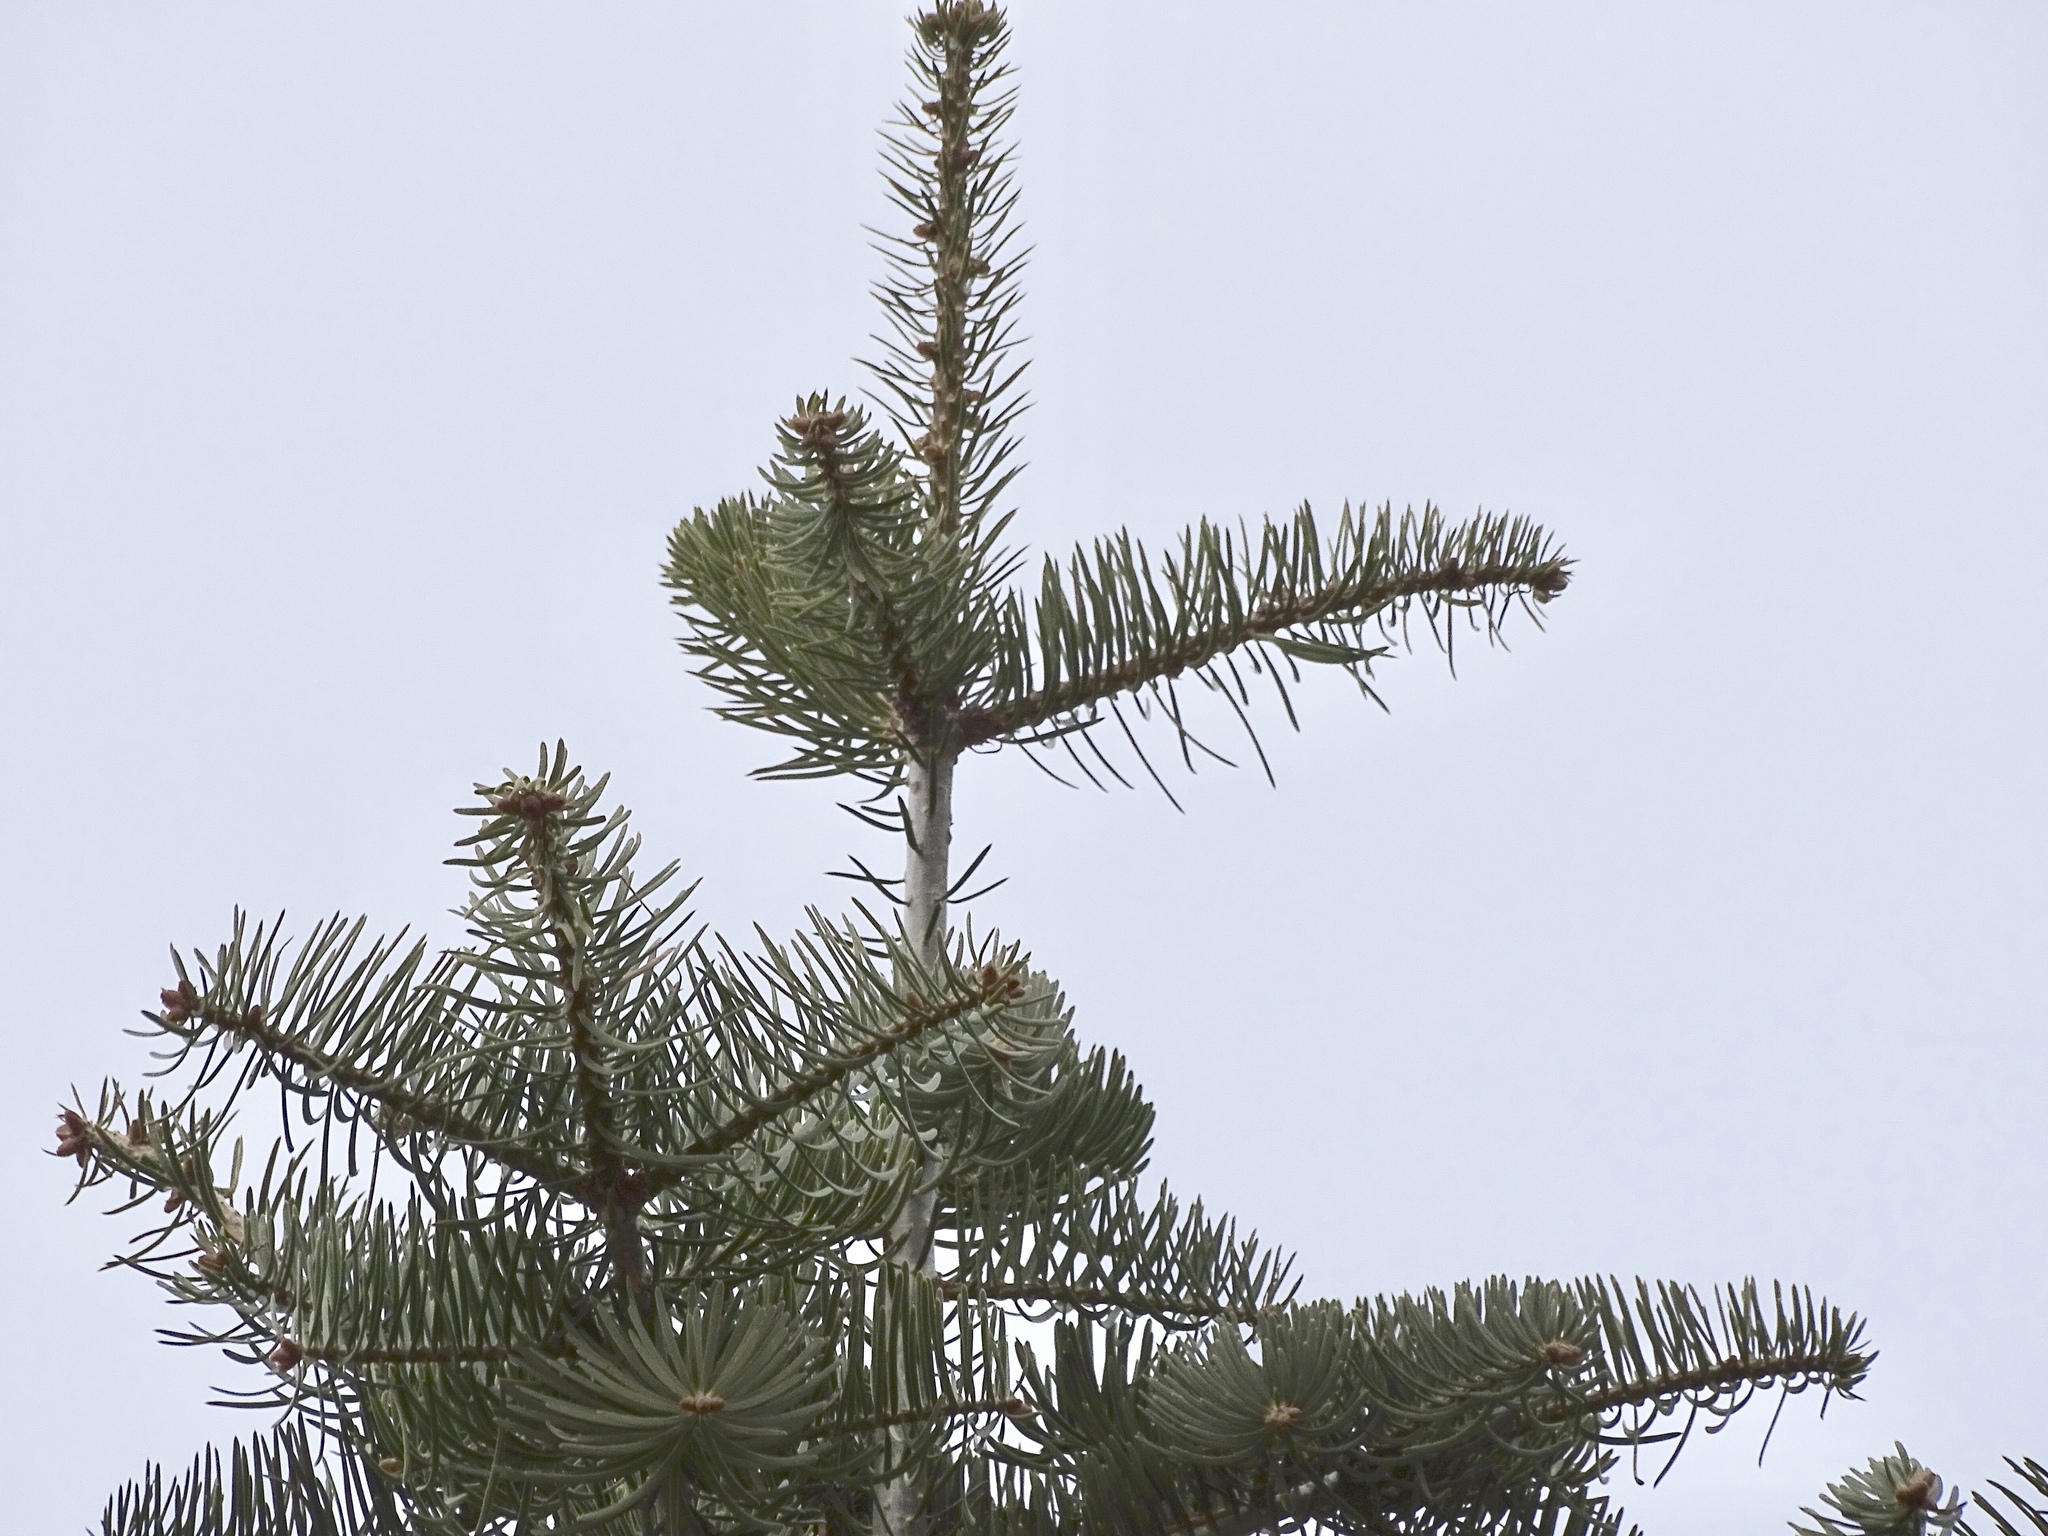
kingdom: Plantae
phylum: Tracheophyta
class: Pinopsida
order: Pinales
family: Pinaceae
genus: Abies
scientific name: Abies concolor
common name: Colorado fir
